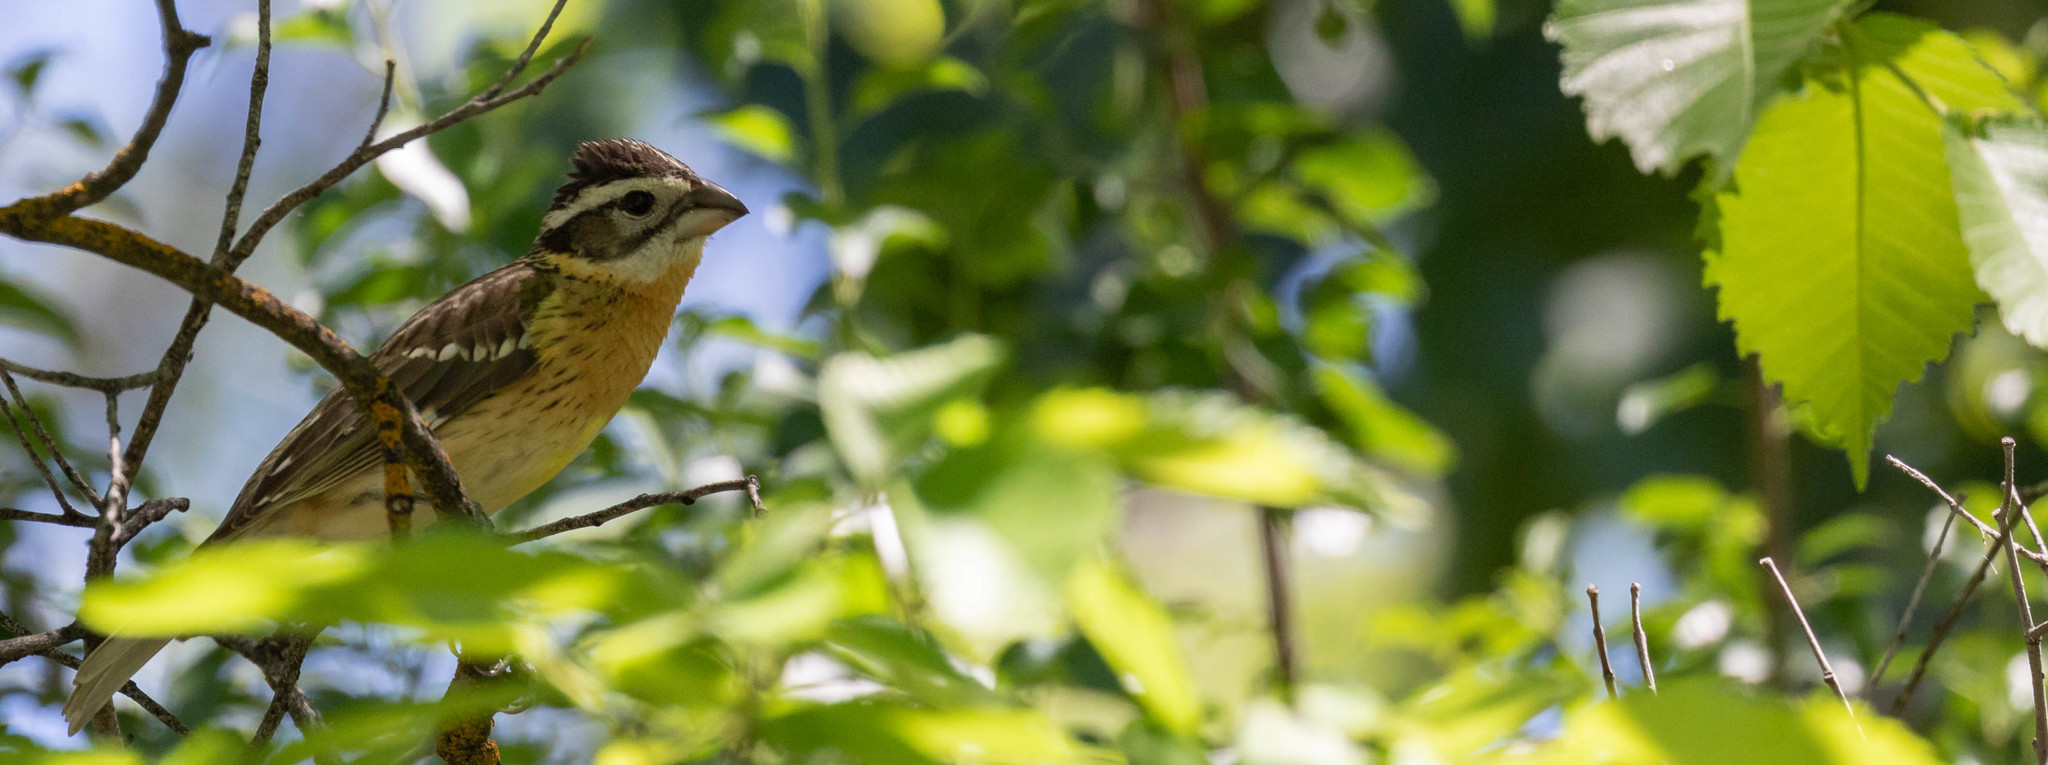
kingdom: Animalia
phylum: Chordata
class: Aves
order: Passeriformes
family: Cardinalidae
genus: Pheucticus
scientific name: Pheucticus melanocephalus
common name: Black-headed grosbeak
